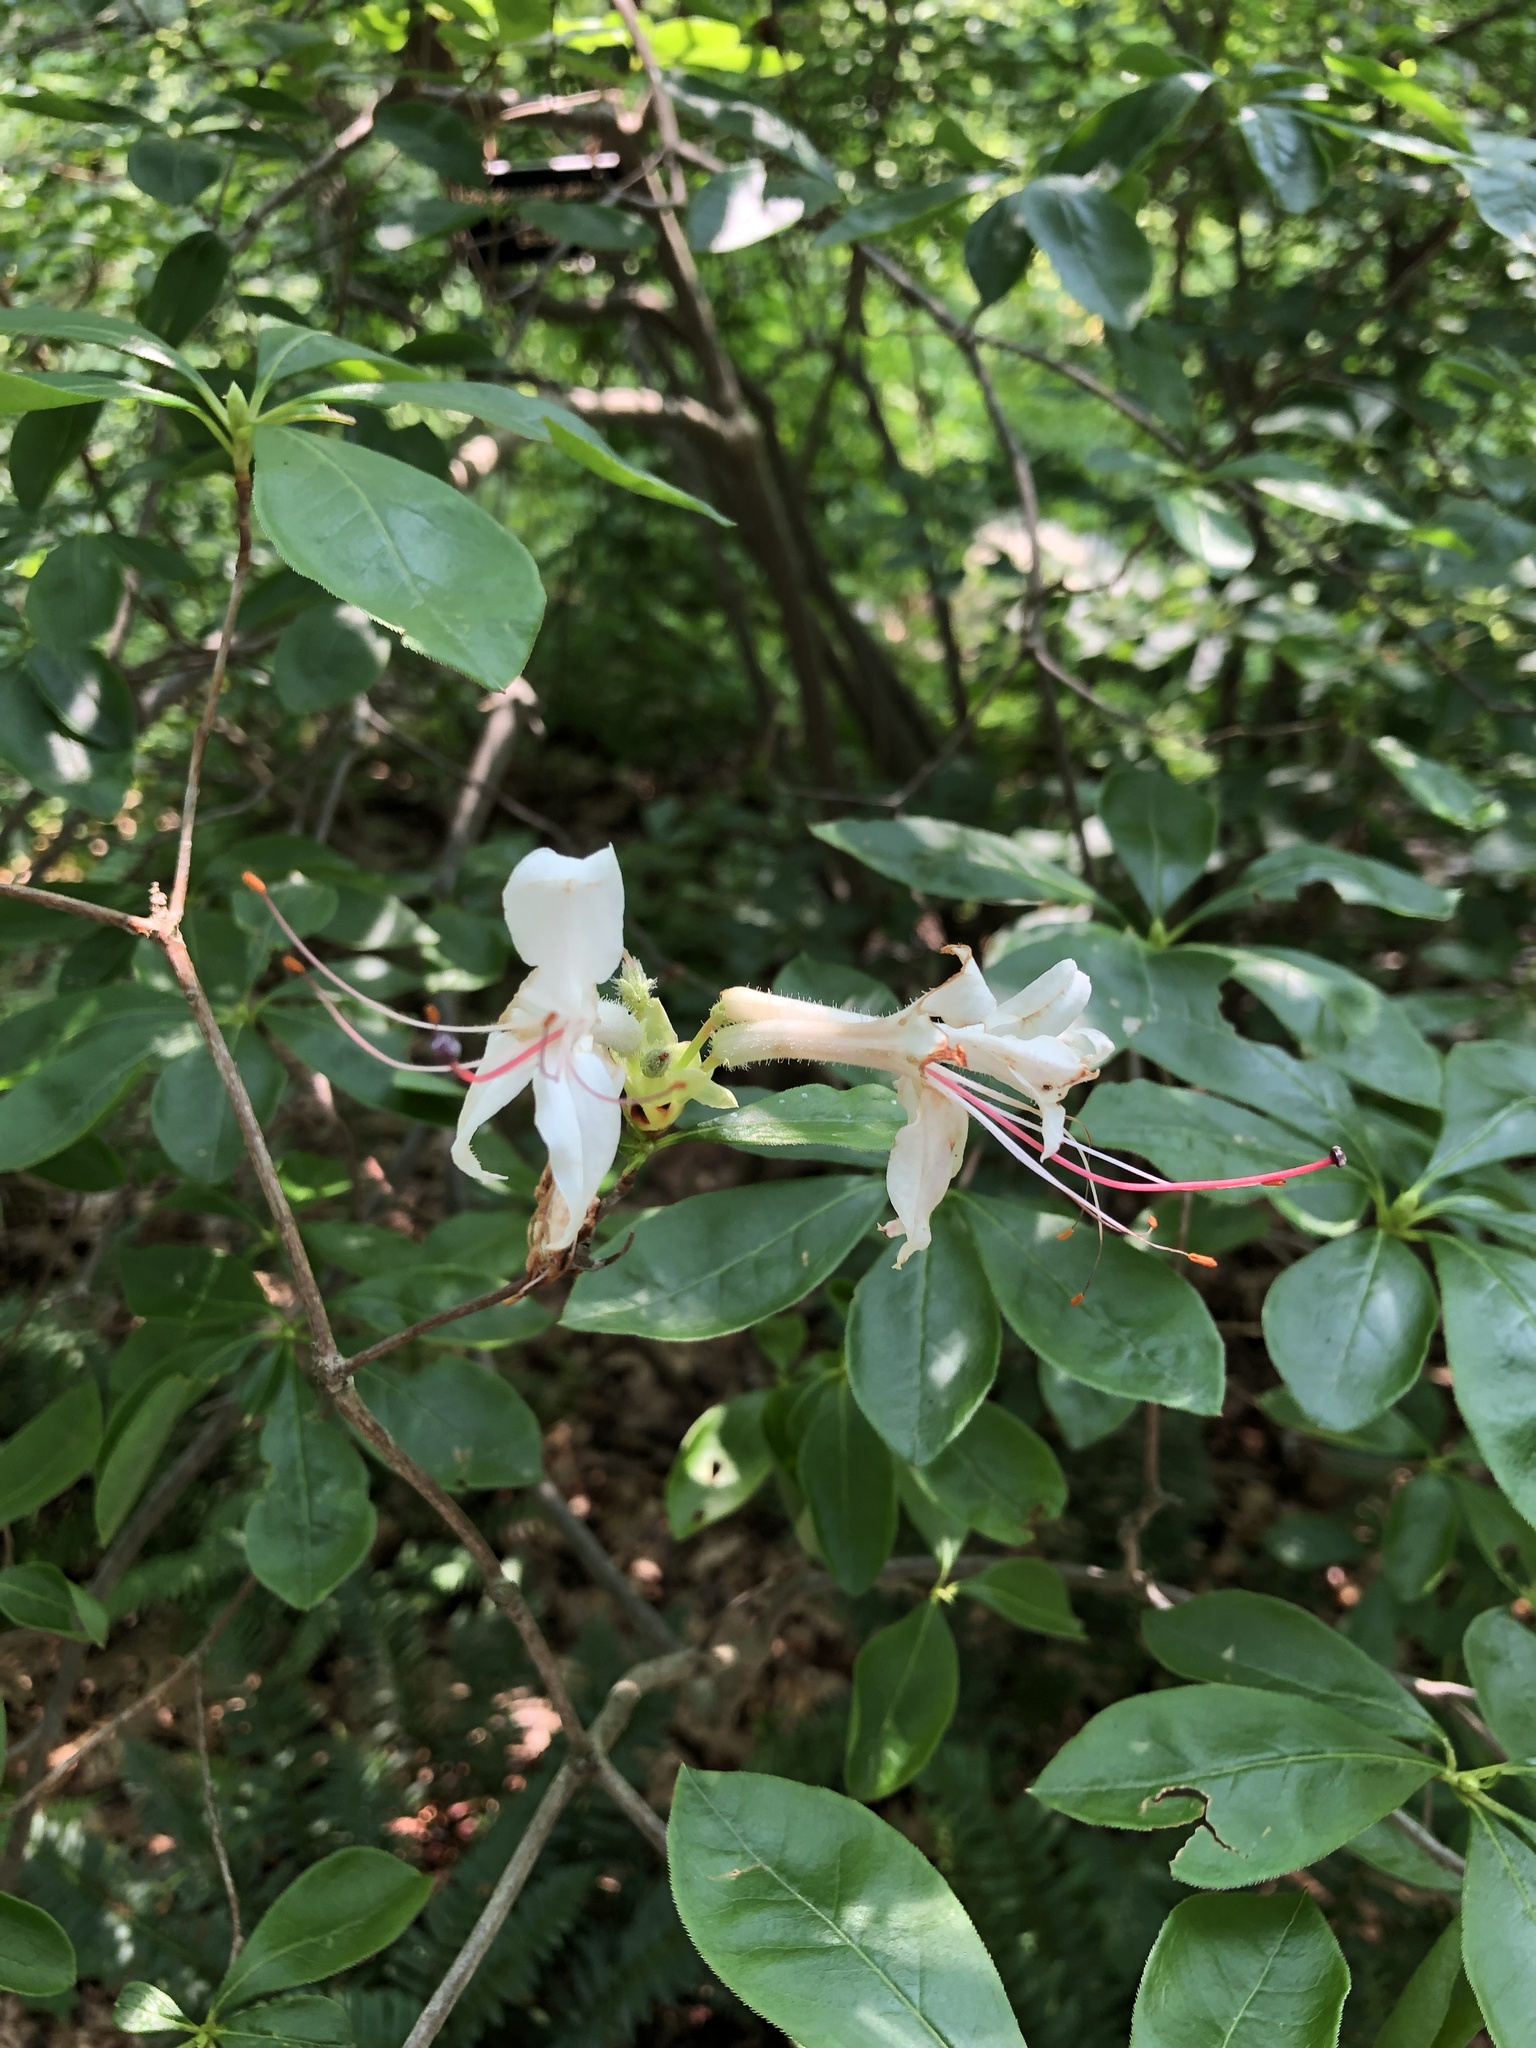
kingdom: Plantae
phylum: Tracheophyta
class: Magnoliopsida
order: Ericales
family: Ericaceae
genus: Rhododendron
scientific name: Rhododendron roseum
